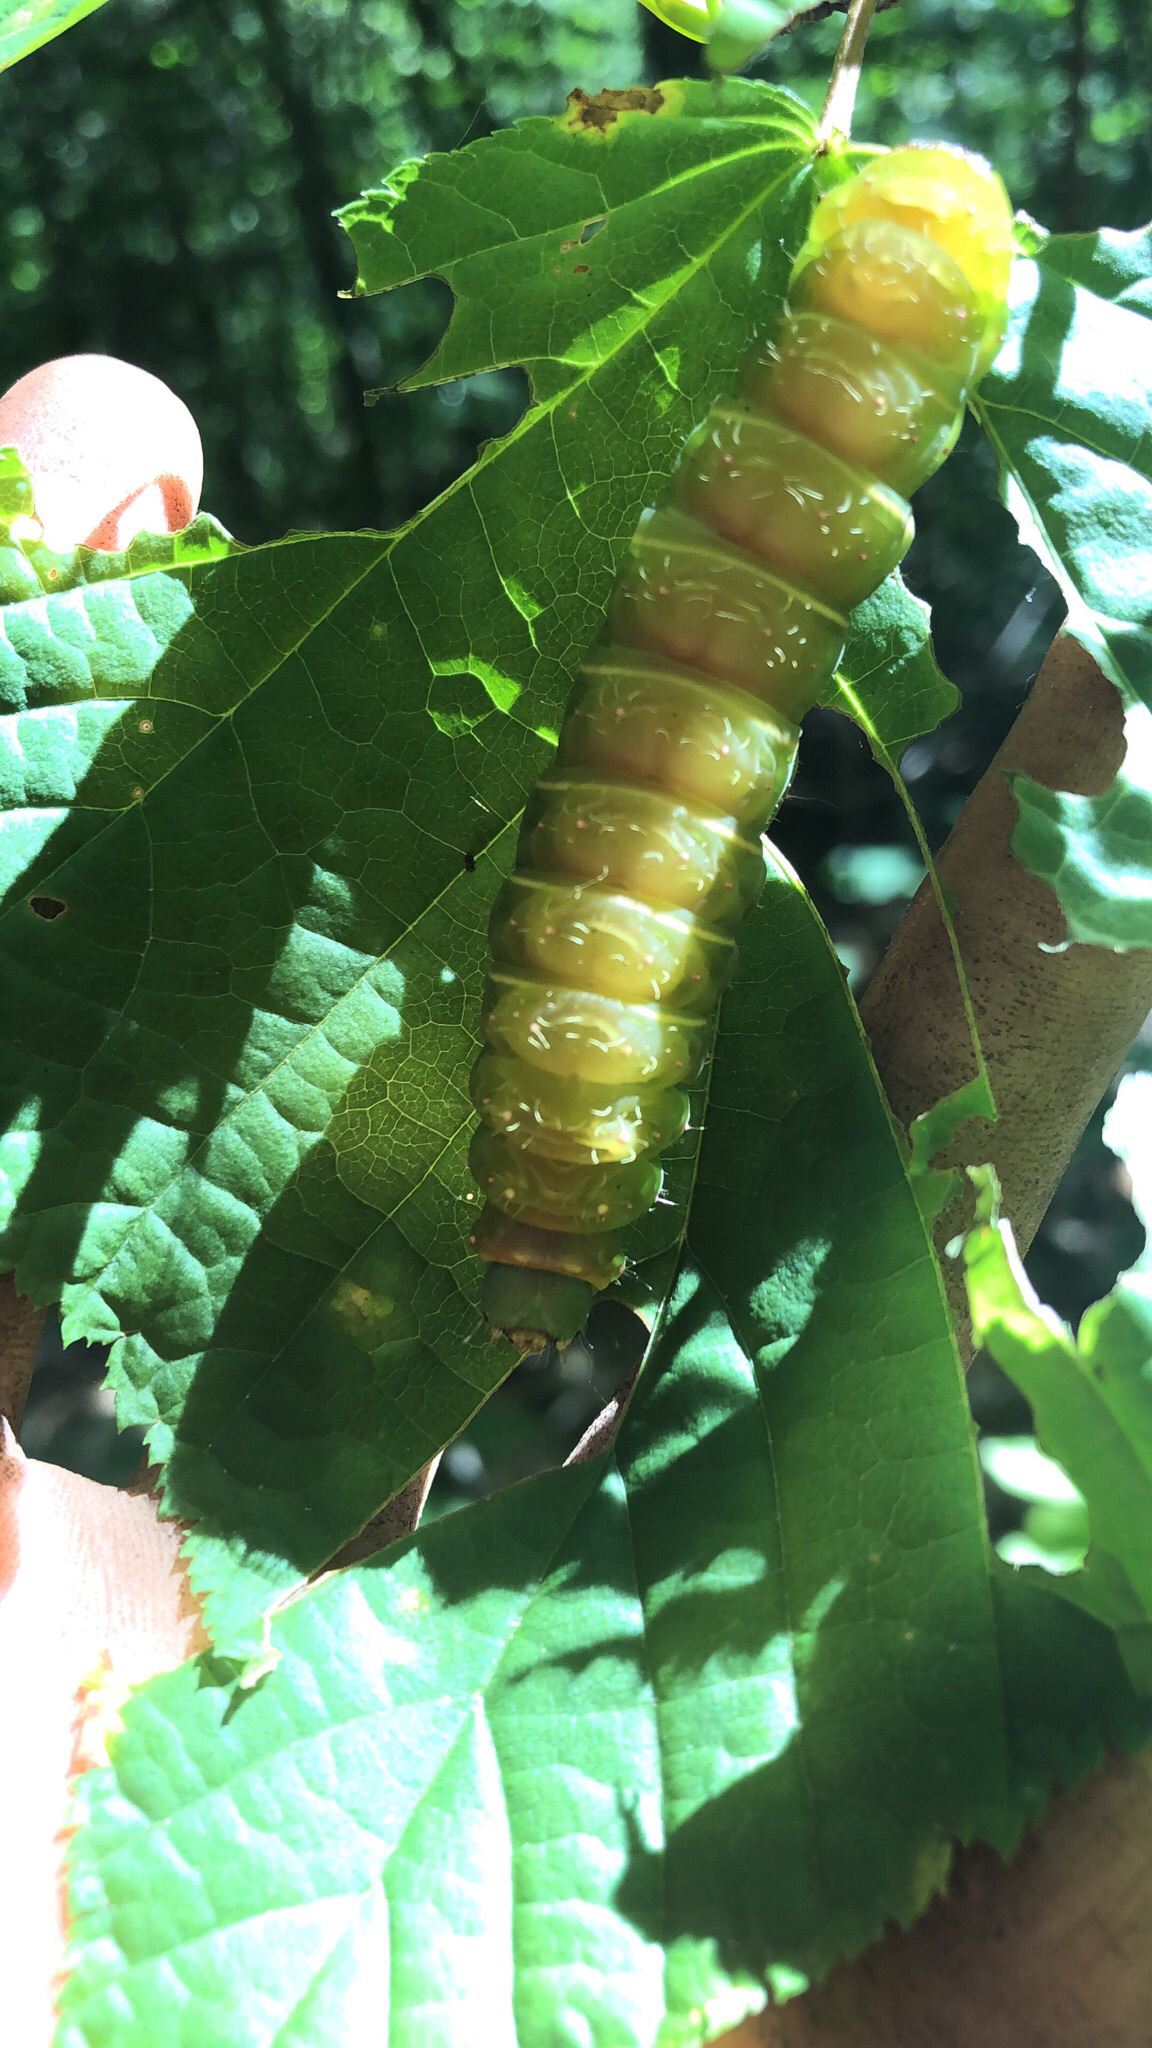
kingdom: Animalia
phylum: Arthropoda
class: Insecta
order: Lepidoptera
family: Saturniidae
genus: Actias
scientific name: Actias luna
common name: Luna moth
